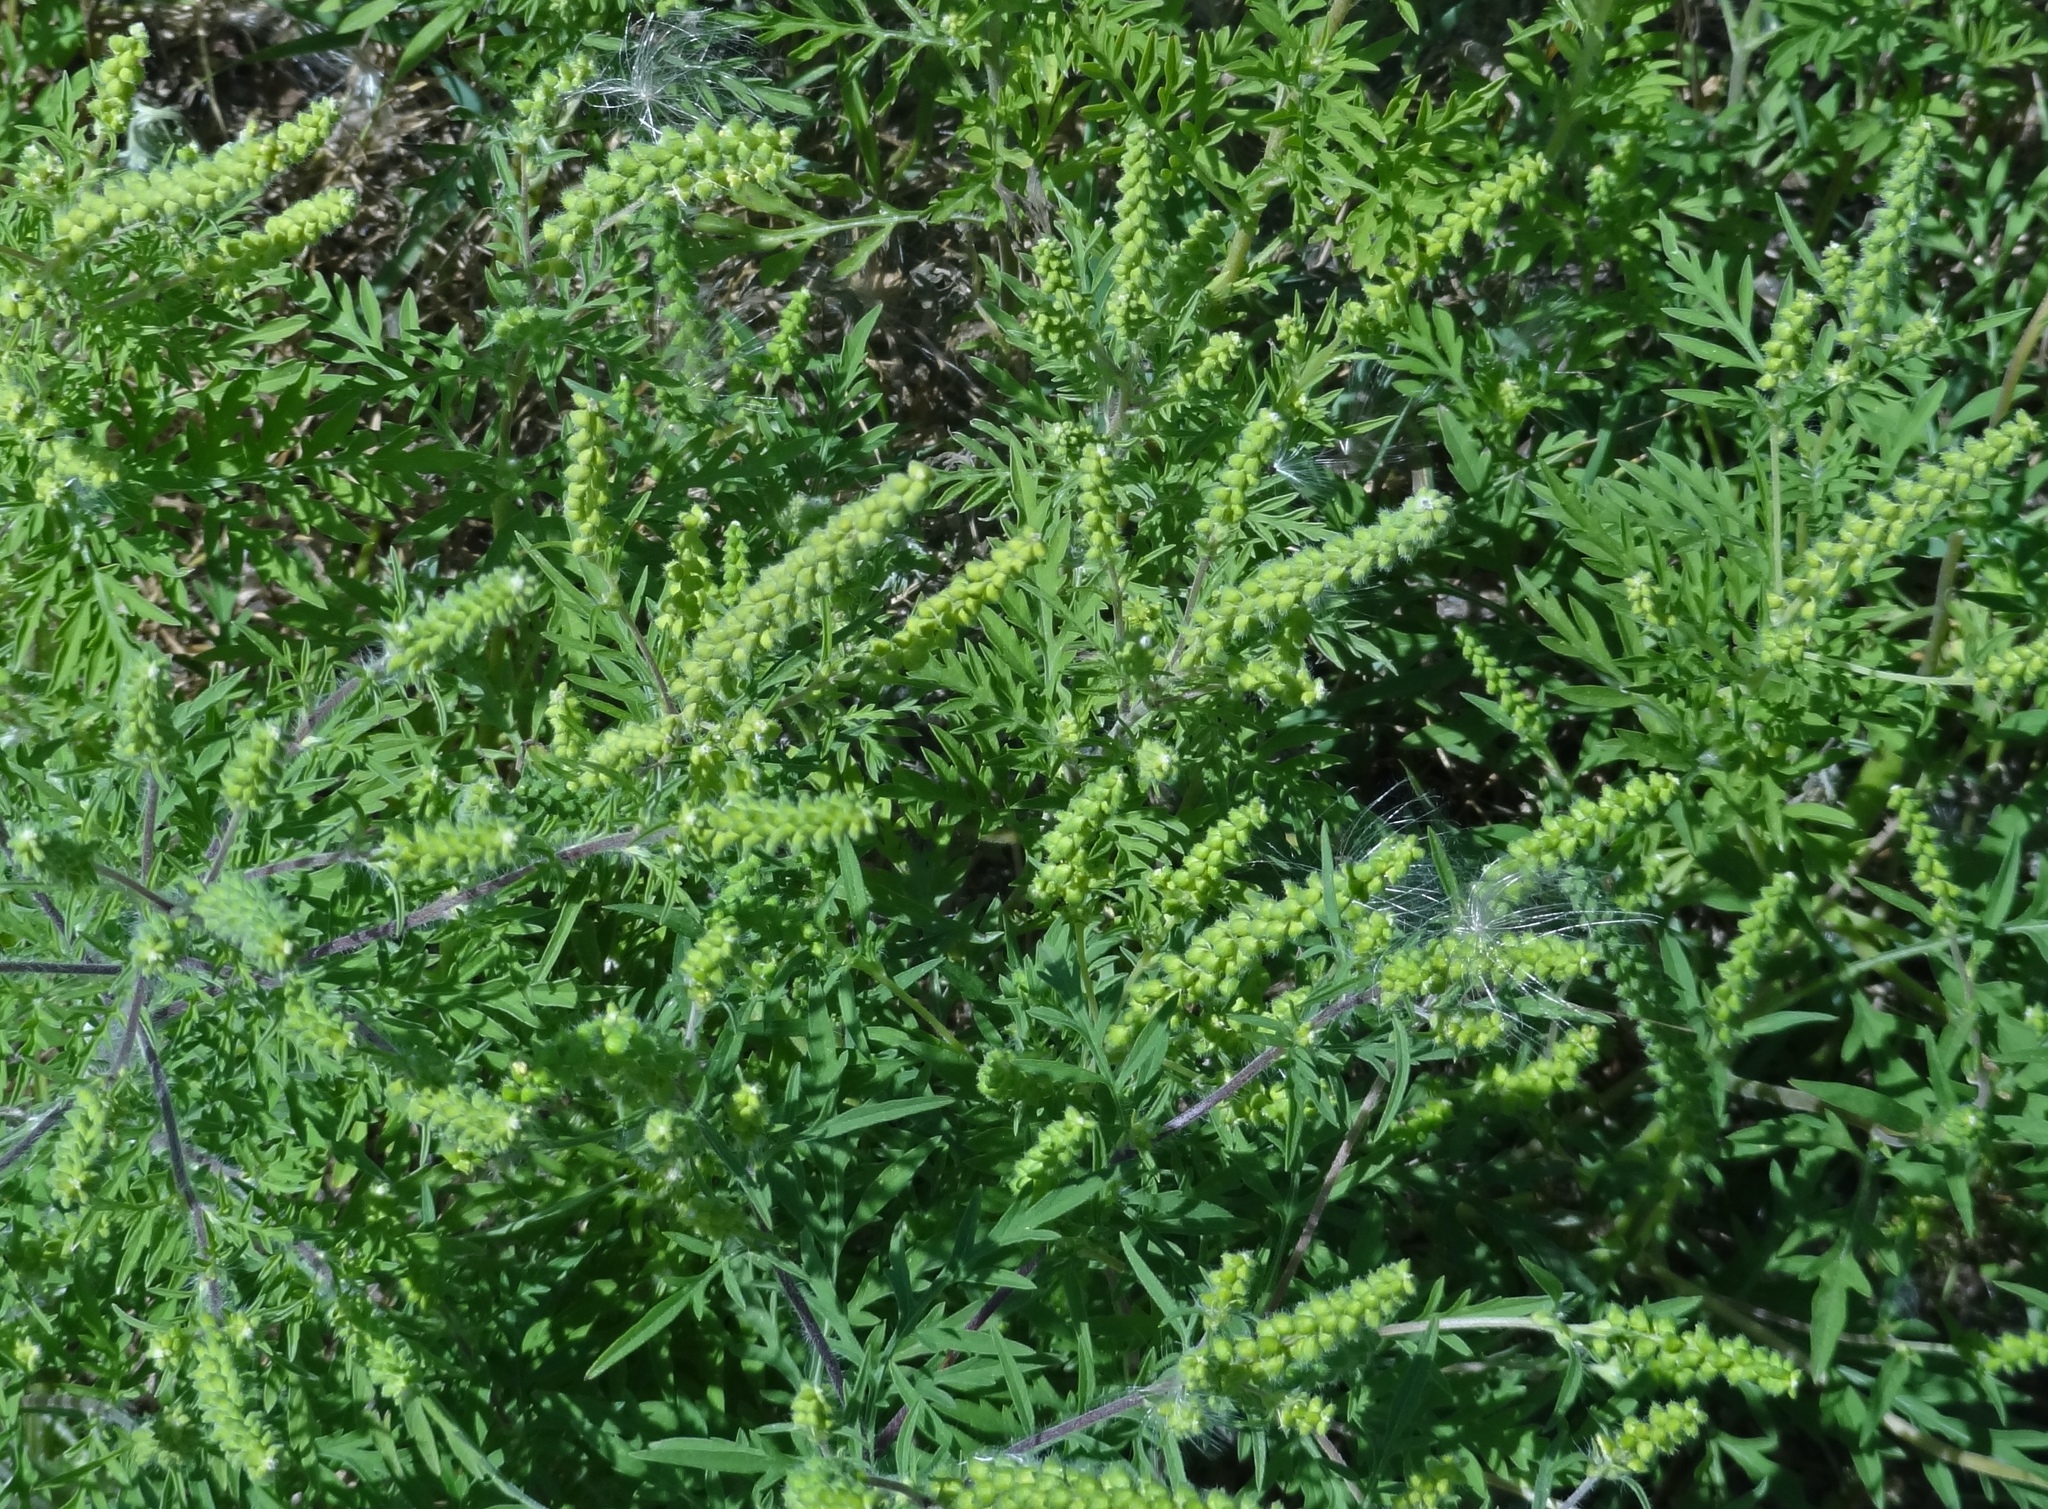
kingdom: Plantae
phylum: Tracheophyta
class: Magnoliopsida
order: Asterales
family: Asteraceae
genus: Ambrosia
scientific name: Ambrosia artemisiifolia
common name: Annual ragweed
